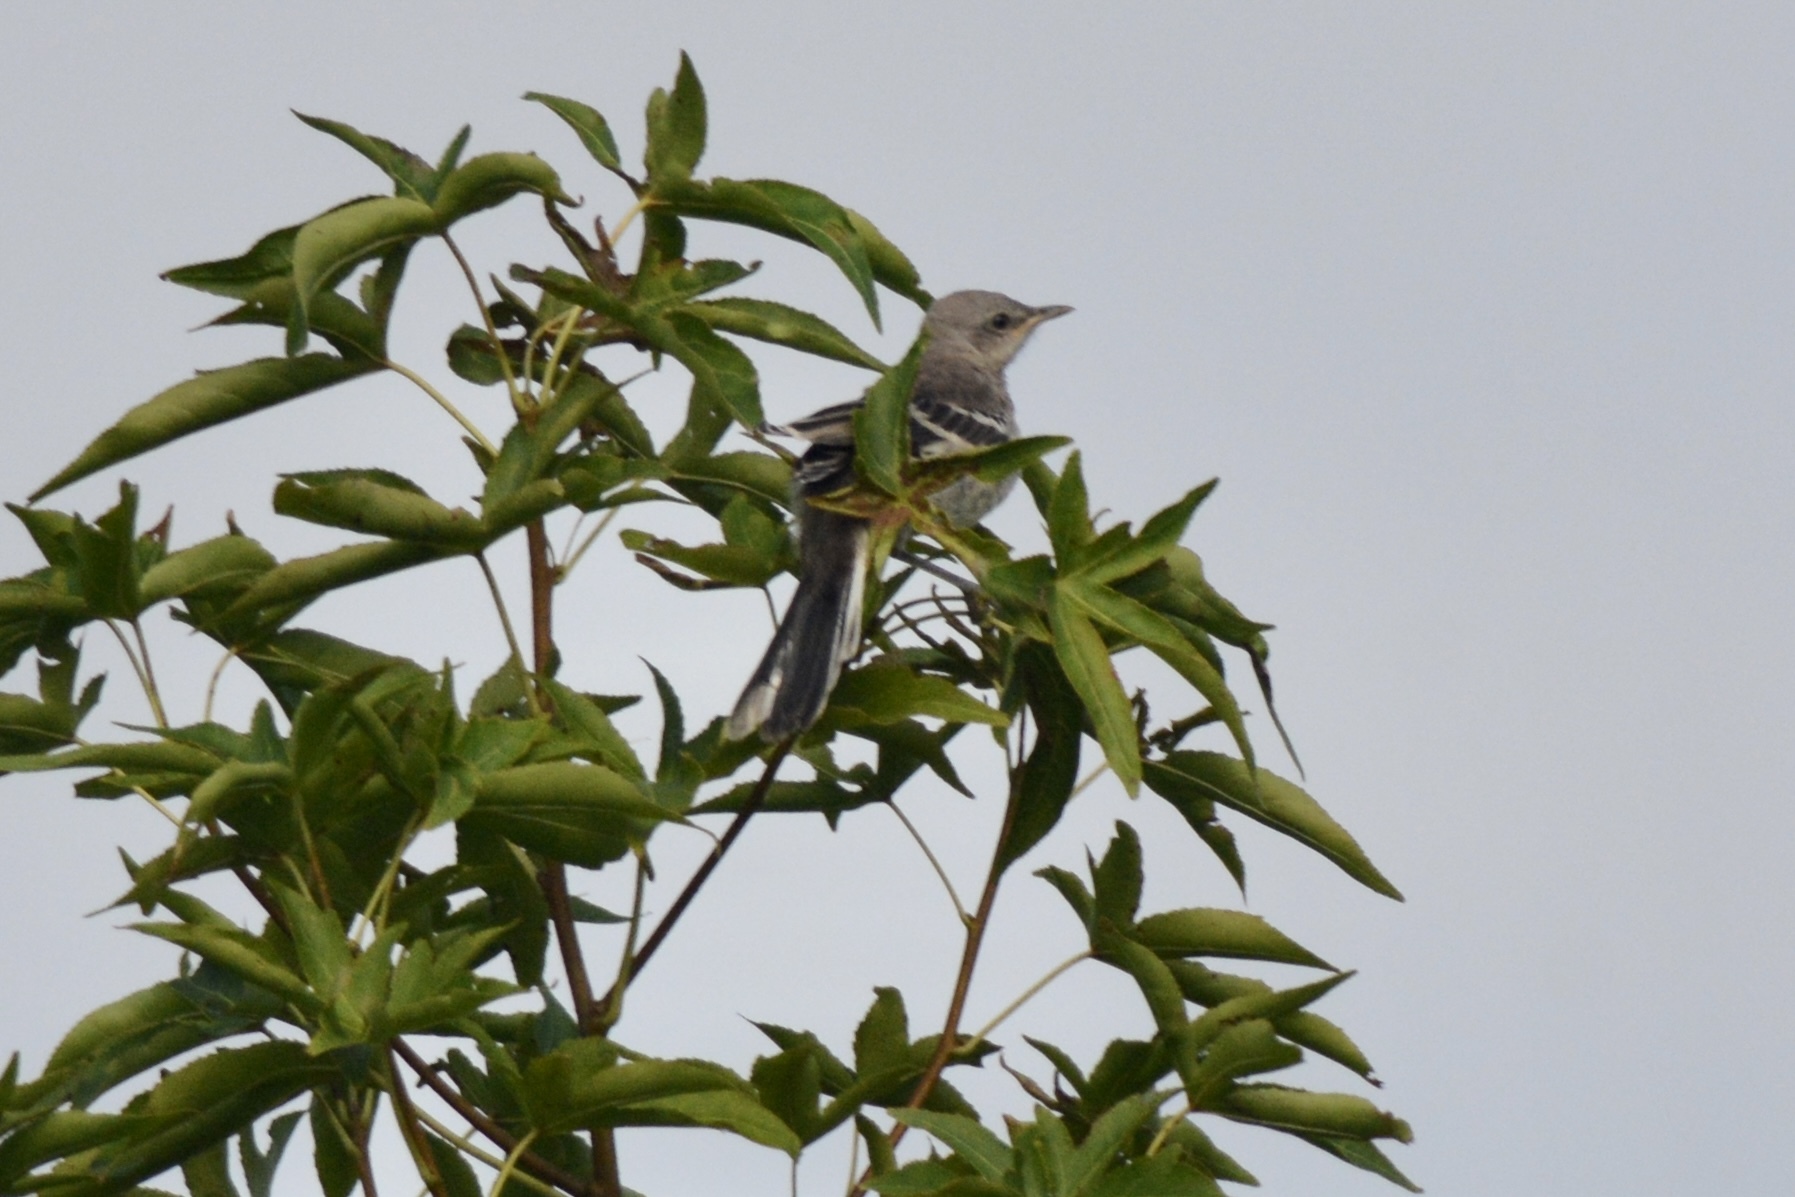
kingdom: Animalia
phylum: Chordata
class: Aves
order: Passeriformes
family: Mimidae
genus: Mimus
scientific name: Mimus polyglottos
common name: Northern mockingbird
